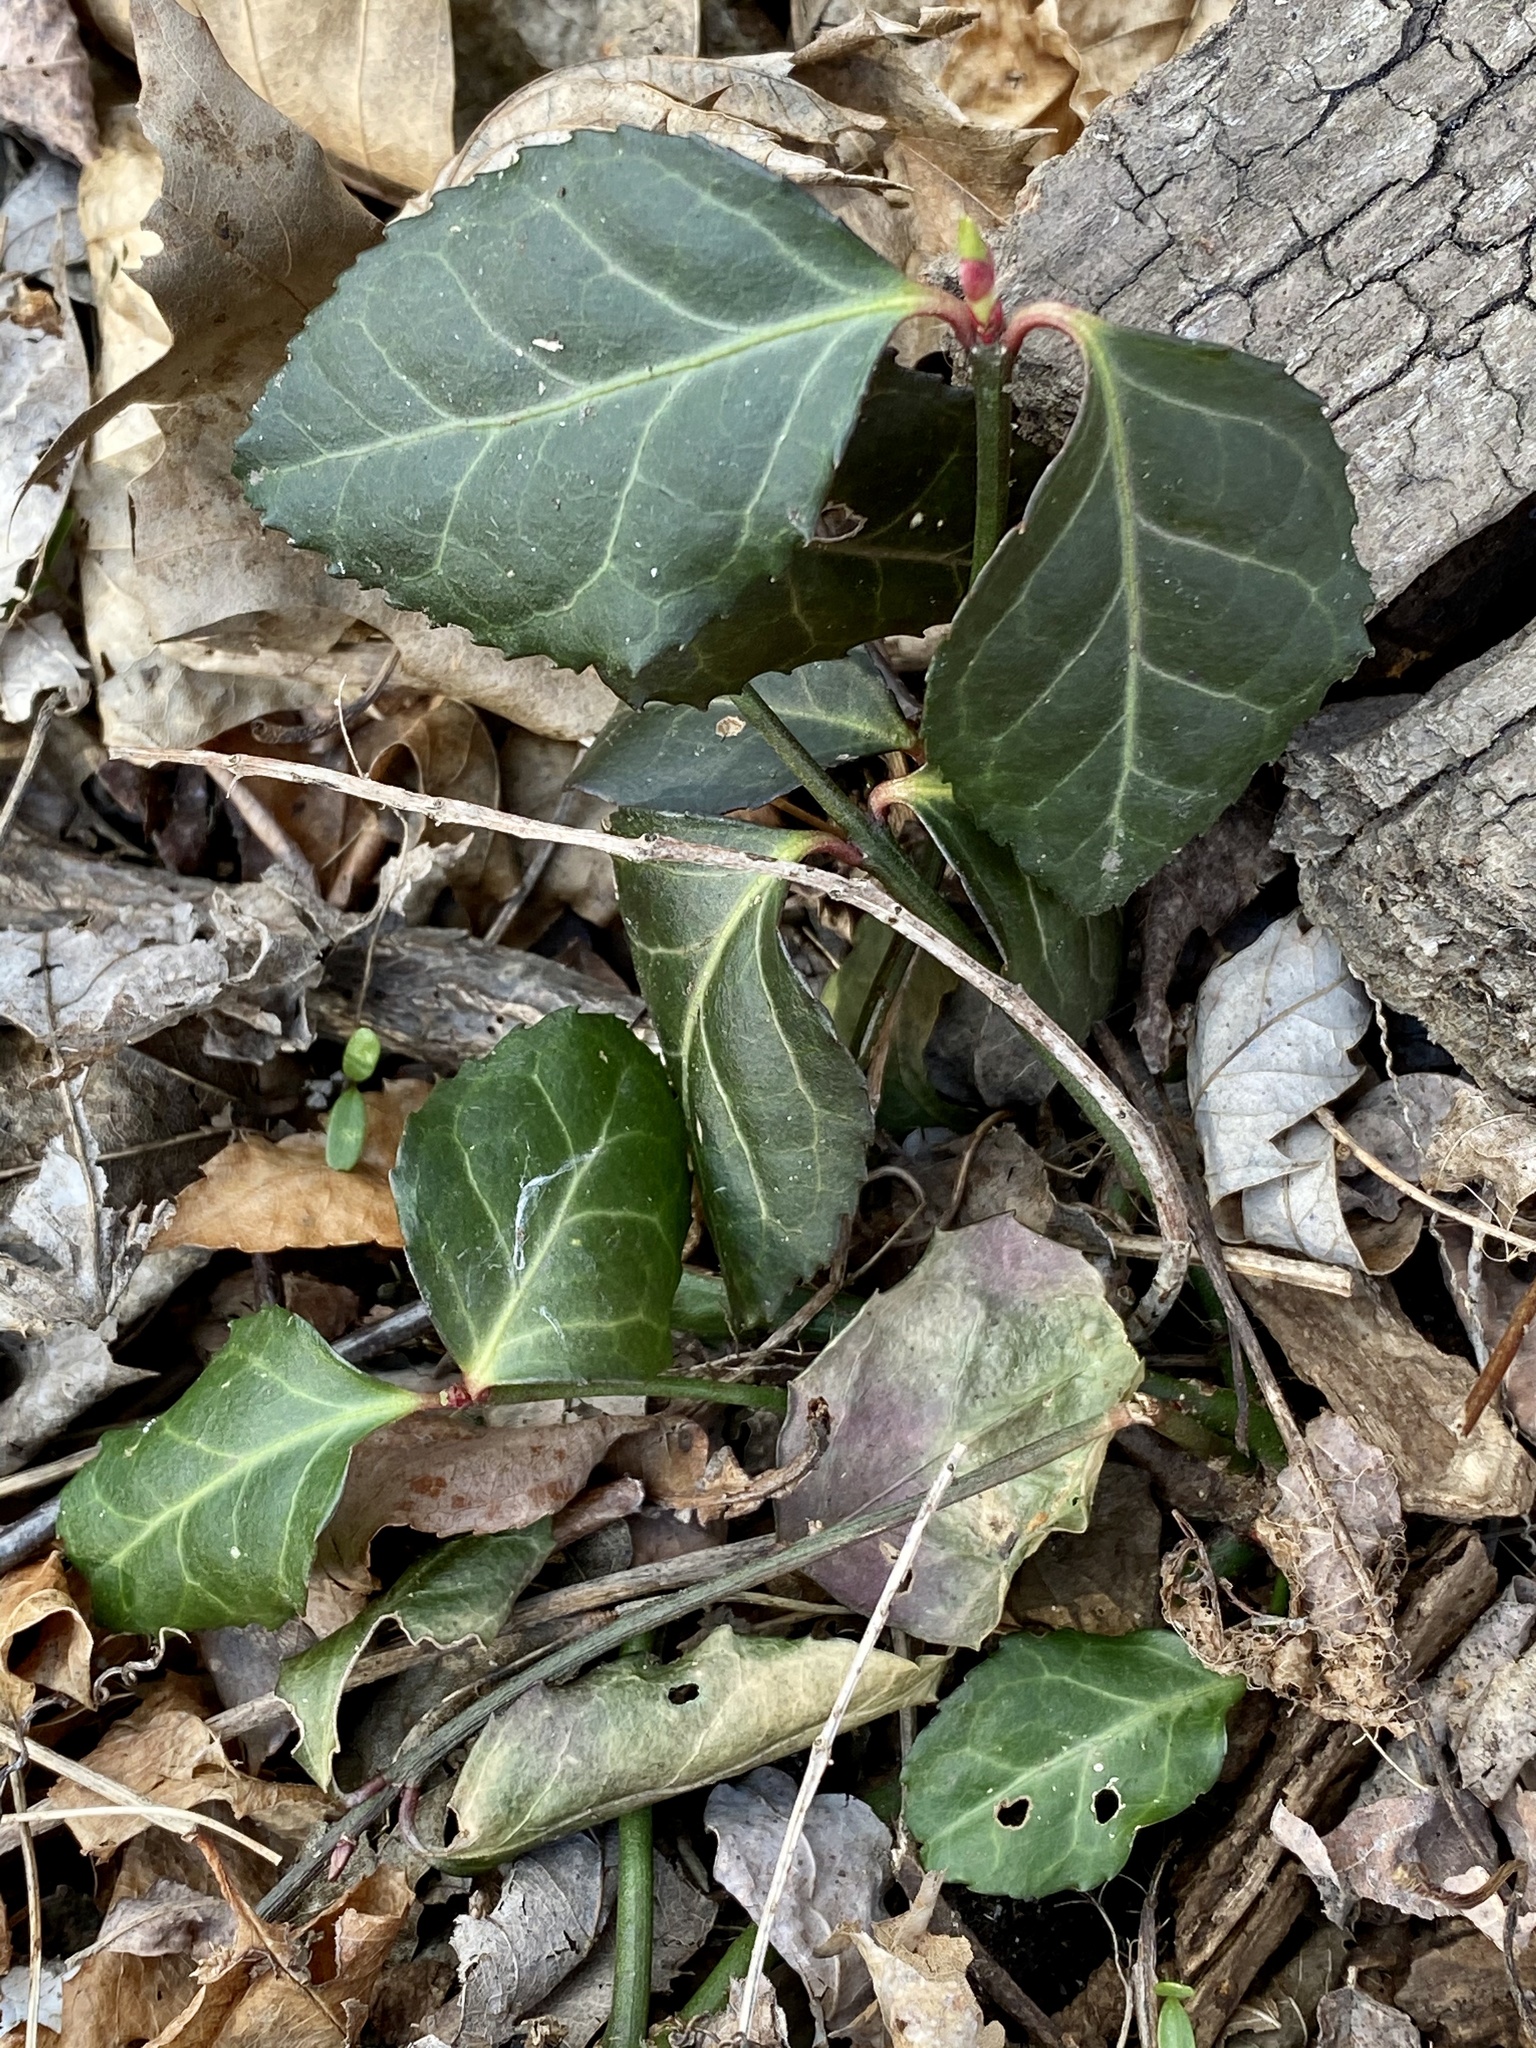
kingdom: Plantae
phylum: Tracheophyta
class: Magnoliopsida
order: Celastrales
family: Celastraceae
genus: Euonymus
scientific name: Euonymus fortunei
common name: Climbing euonymus
